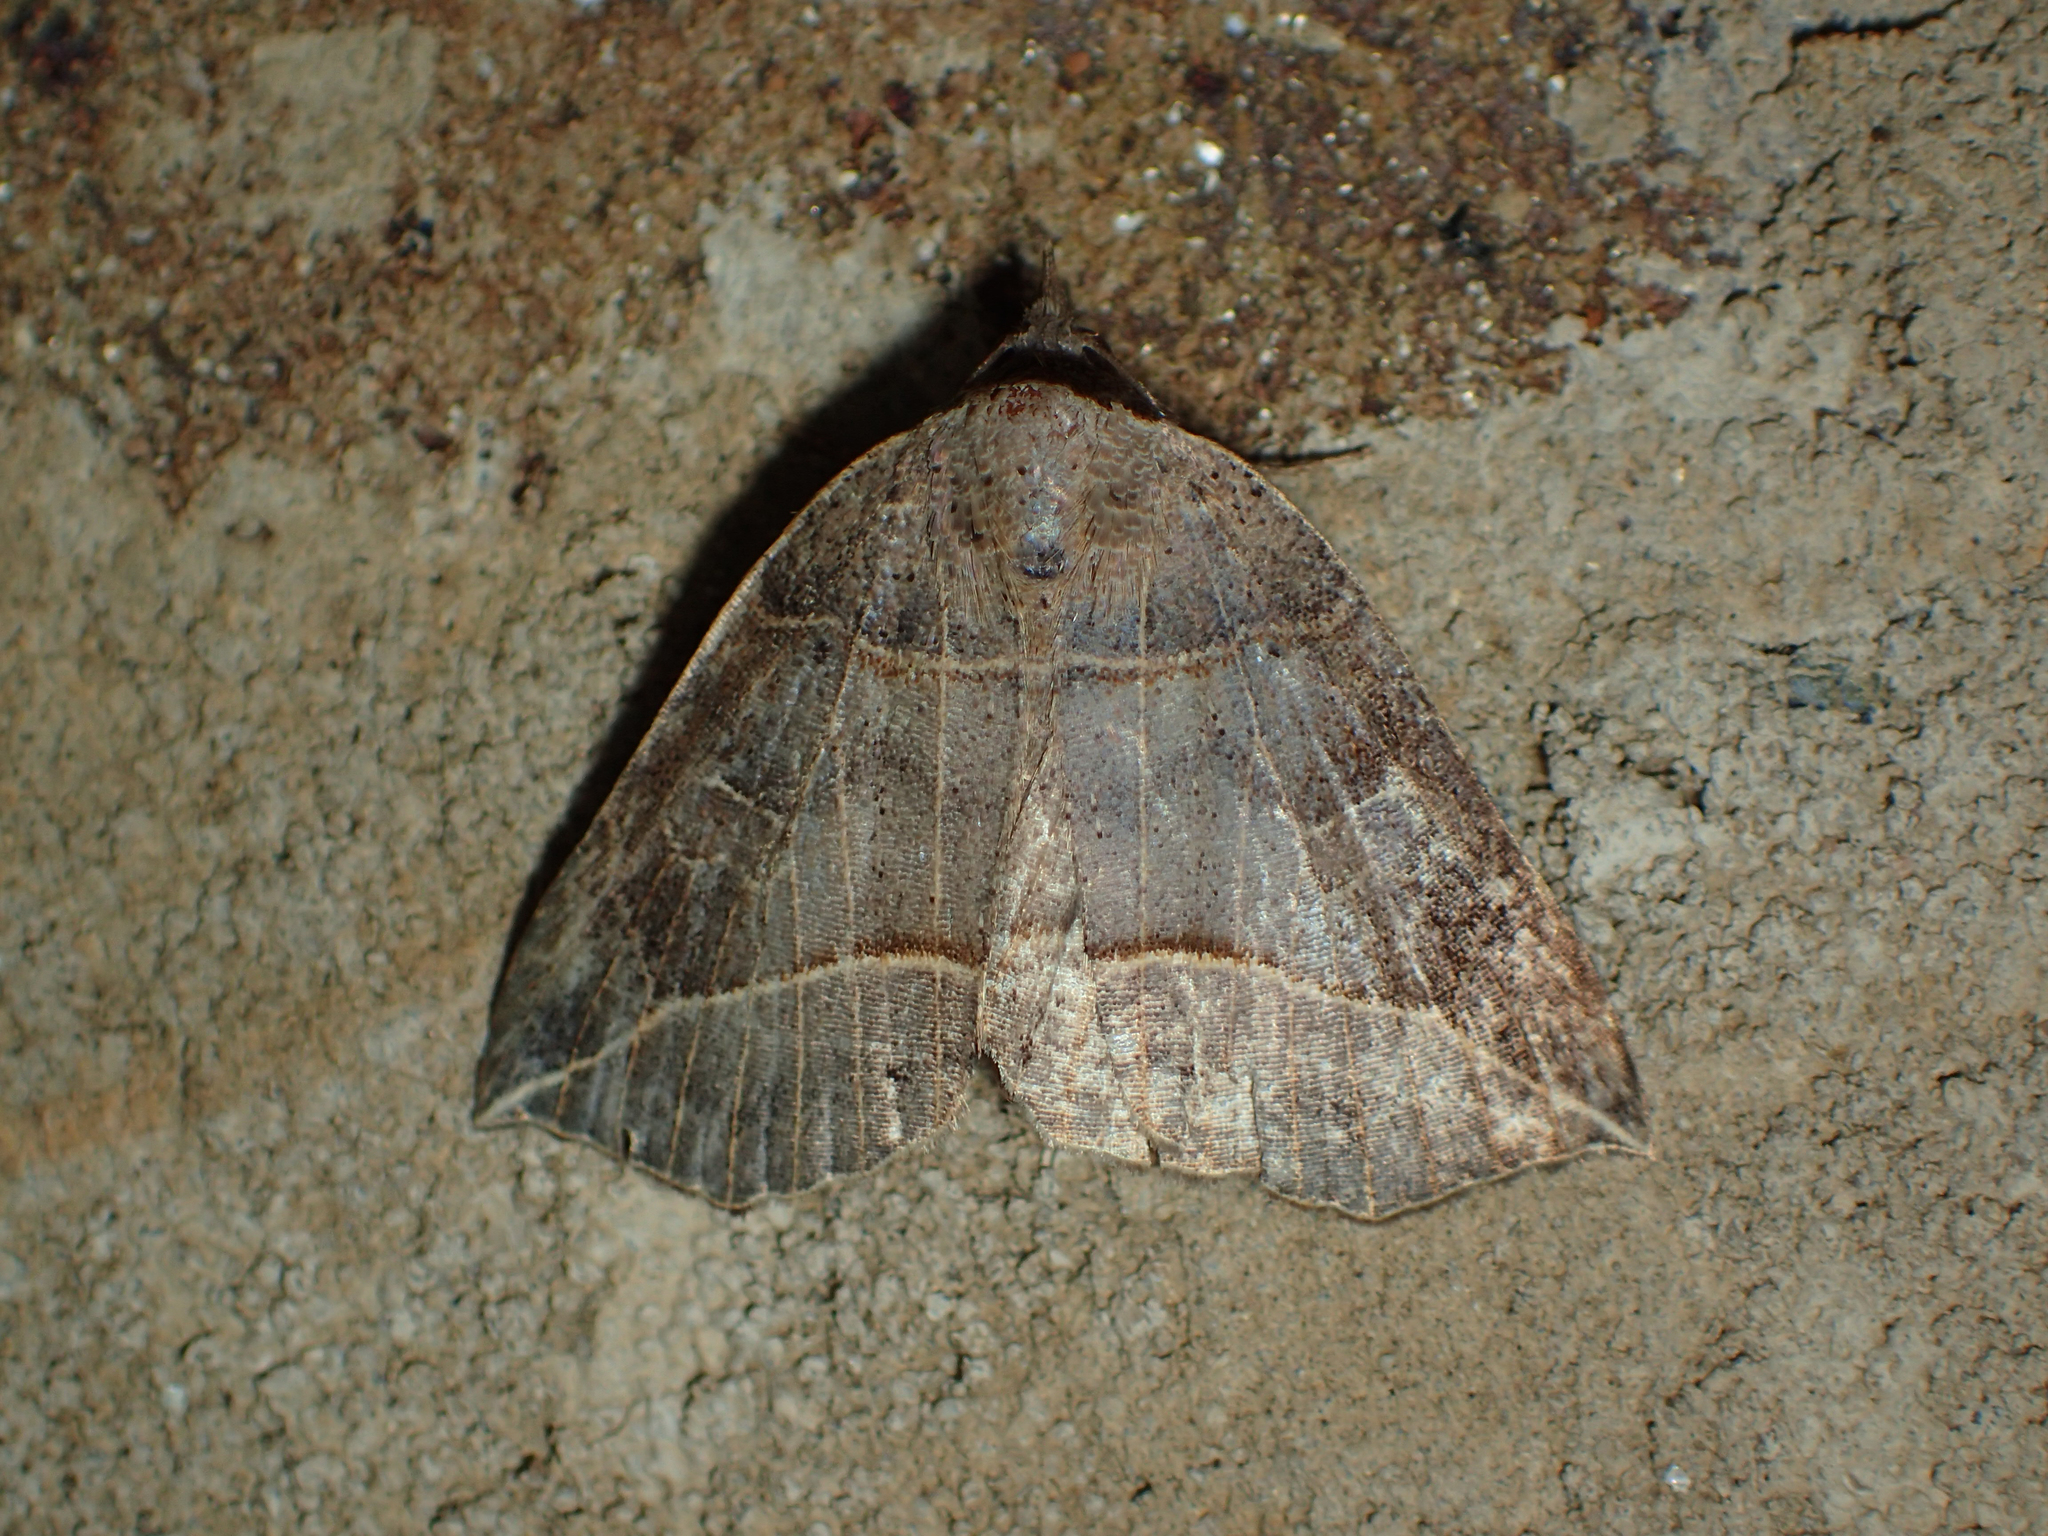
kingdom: Animalia
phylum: Arthropoda
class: Insecta
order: Lepidoptera
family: Erebidae
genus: Isogona
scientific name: Isogona tenuis
